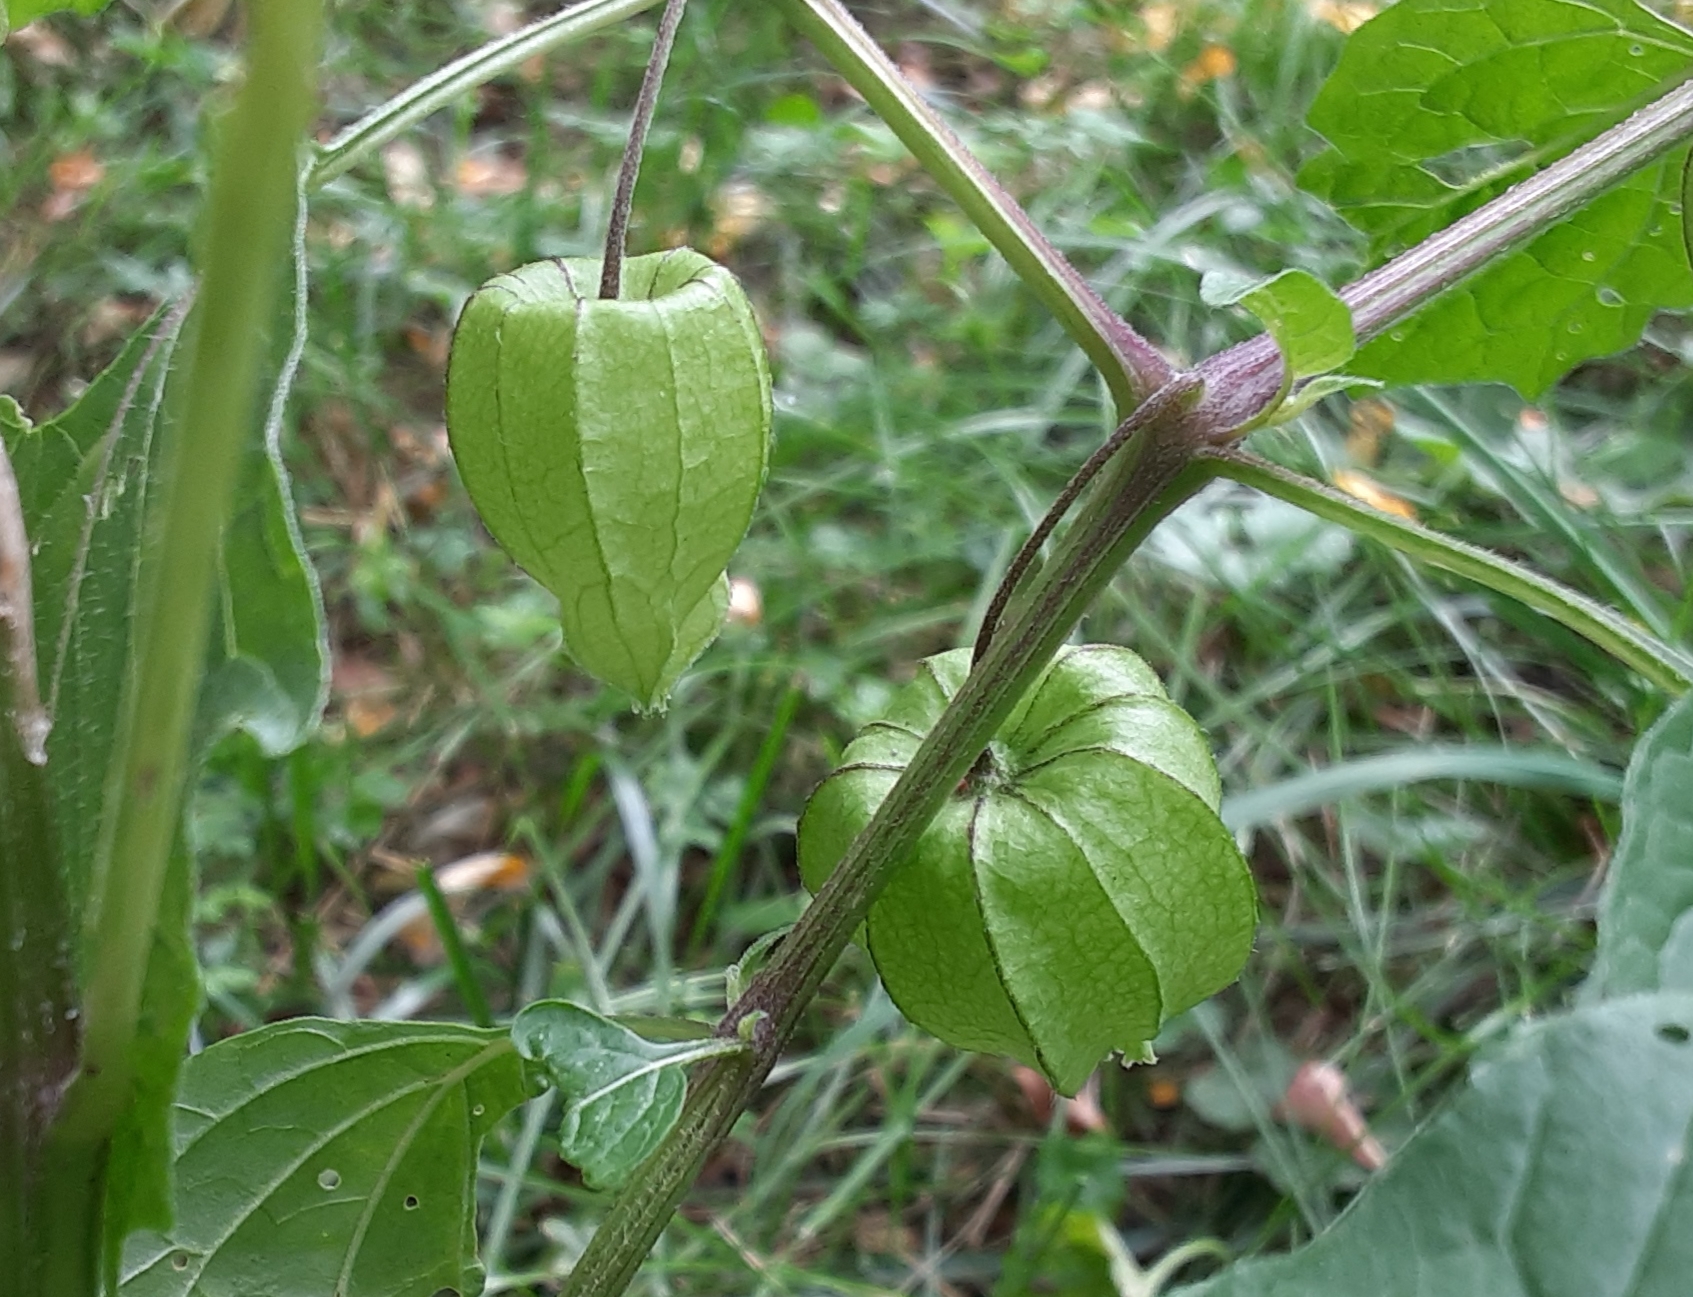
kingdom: Plantae
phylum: Tracheophyta
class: Magnoliopsida
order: Solanales
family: Solanaceae
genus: Physalis
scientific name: Physalis longifolia
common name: Common ground-cherry
